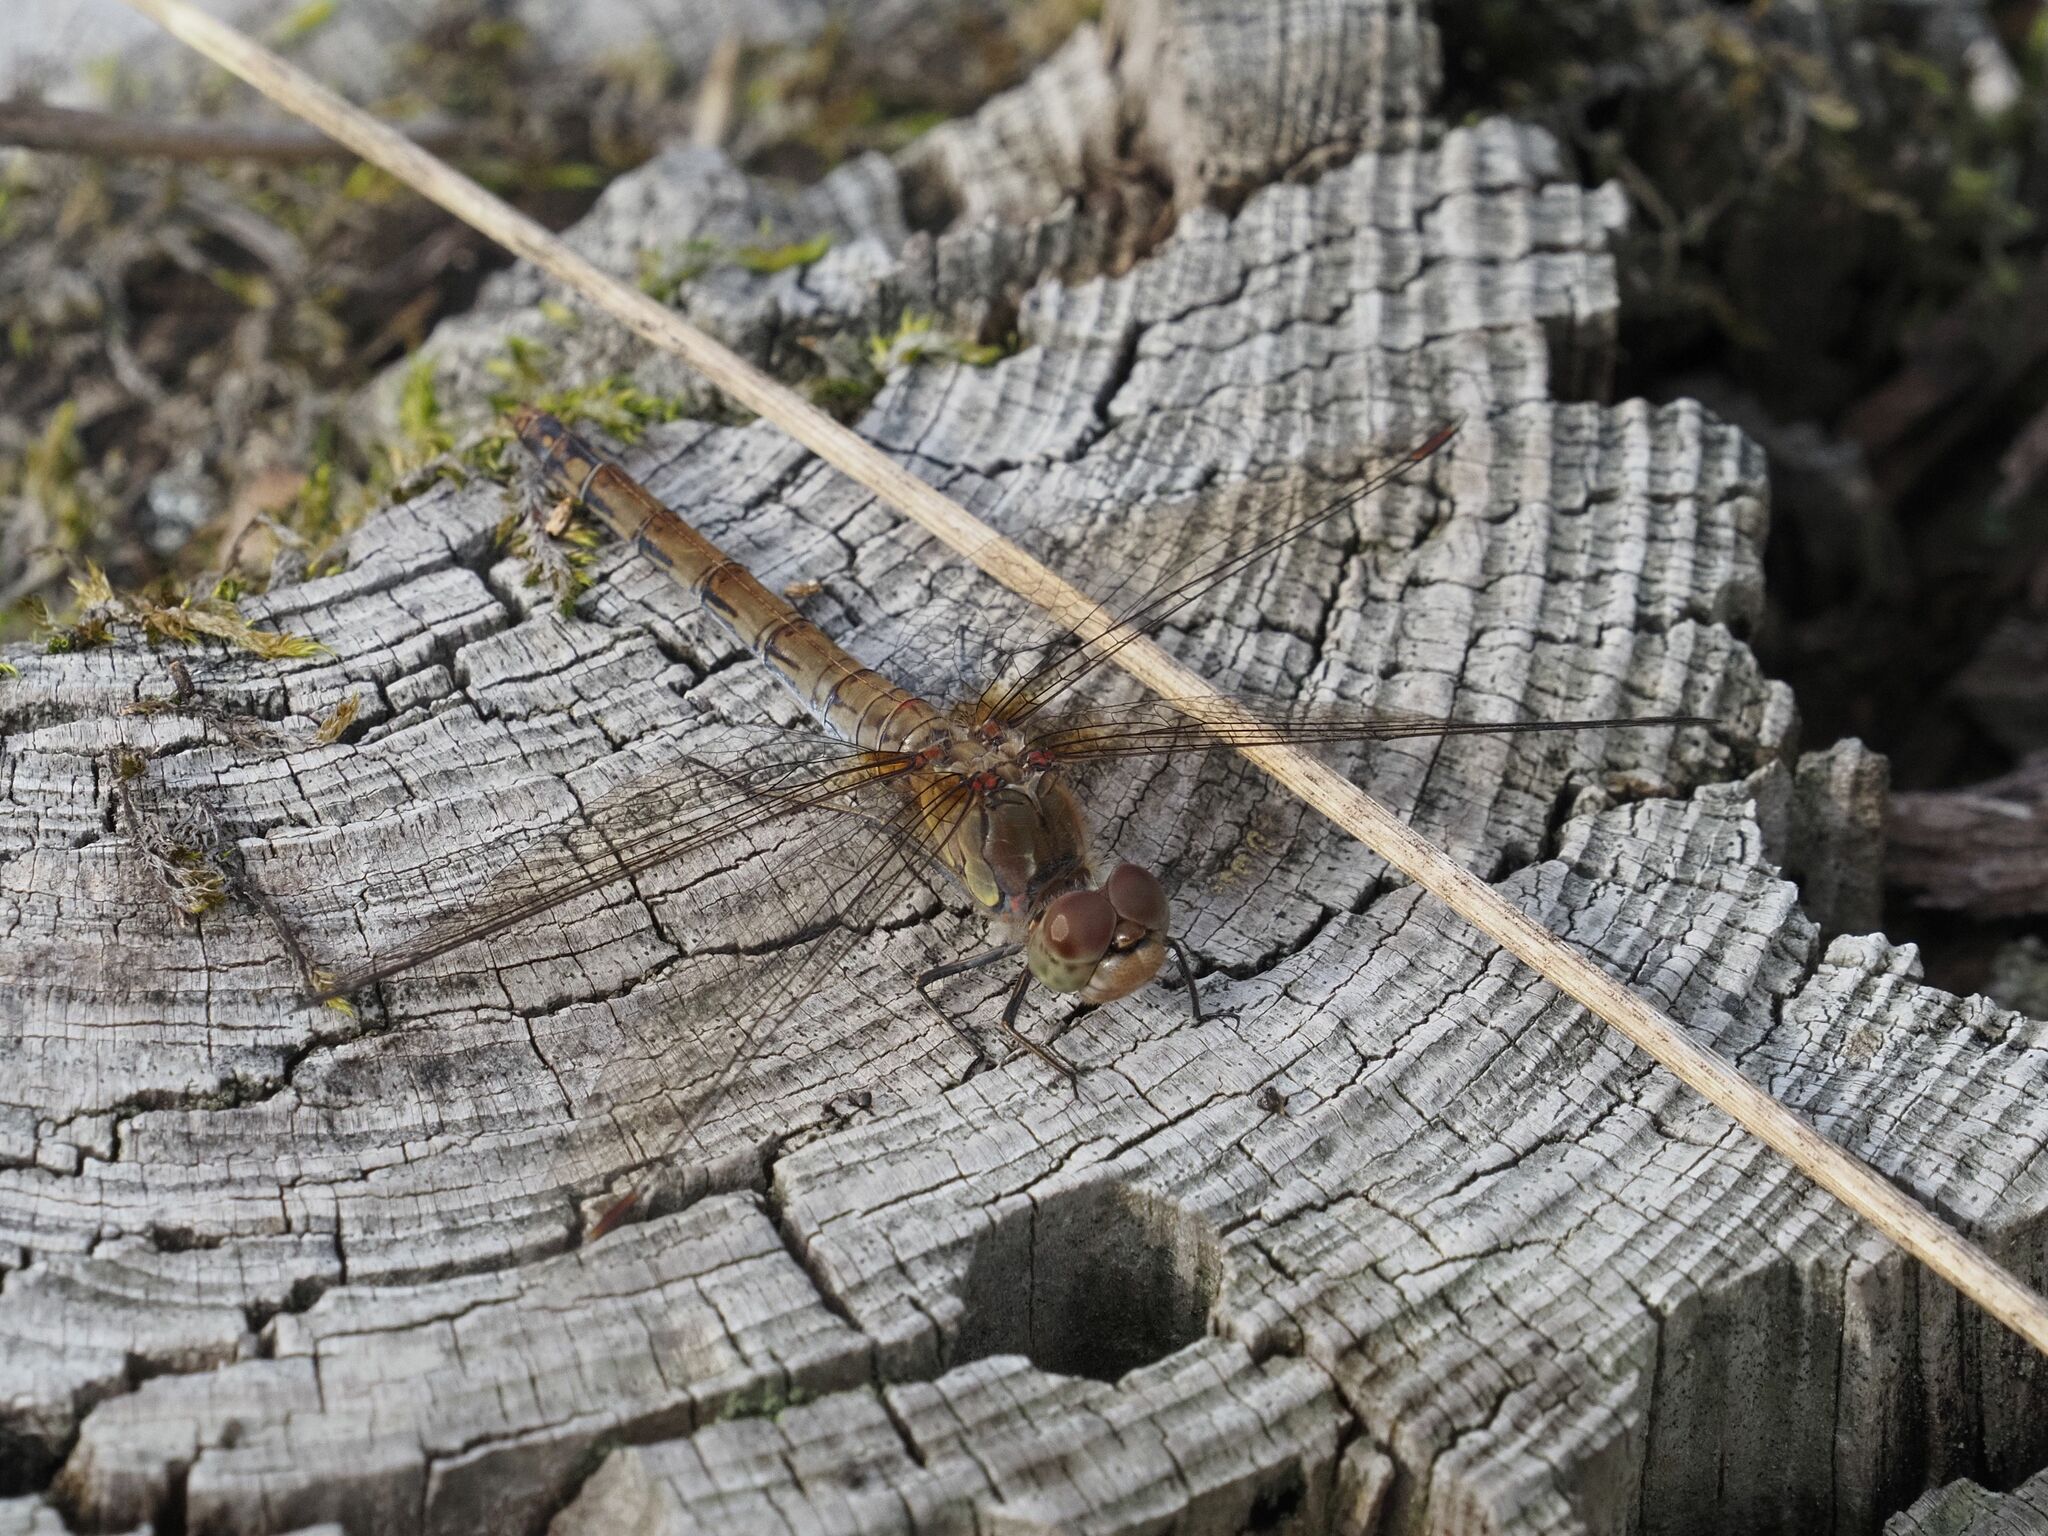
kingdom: Animalia
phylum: Arthropoda
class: Insecta
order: Odonata
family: Libellulidae
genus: Sympetrum
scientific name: Sympetrum striolatum
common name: Common darter
